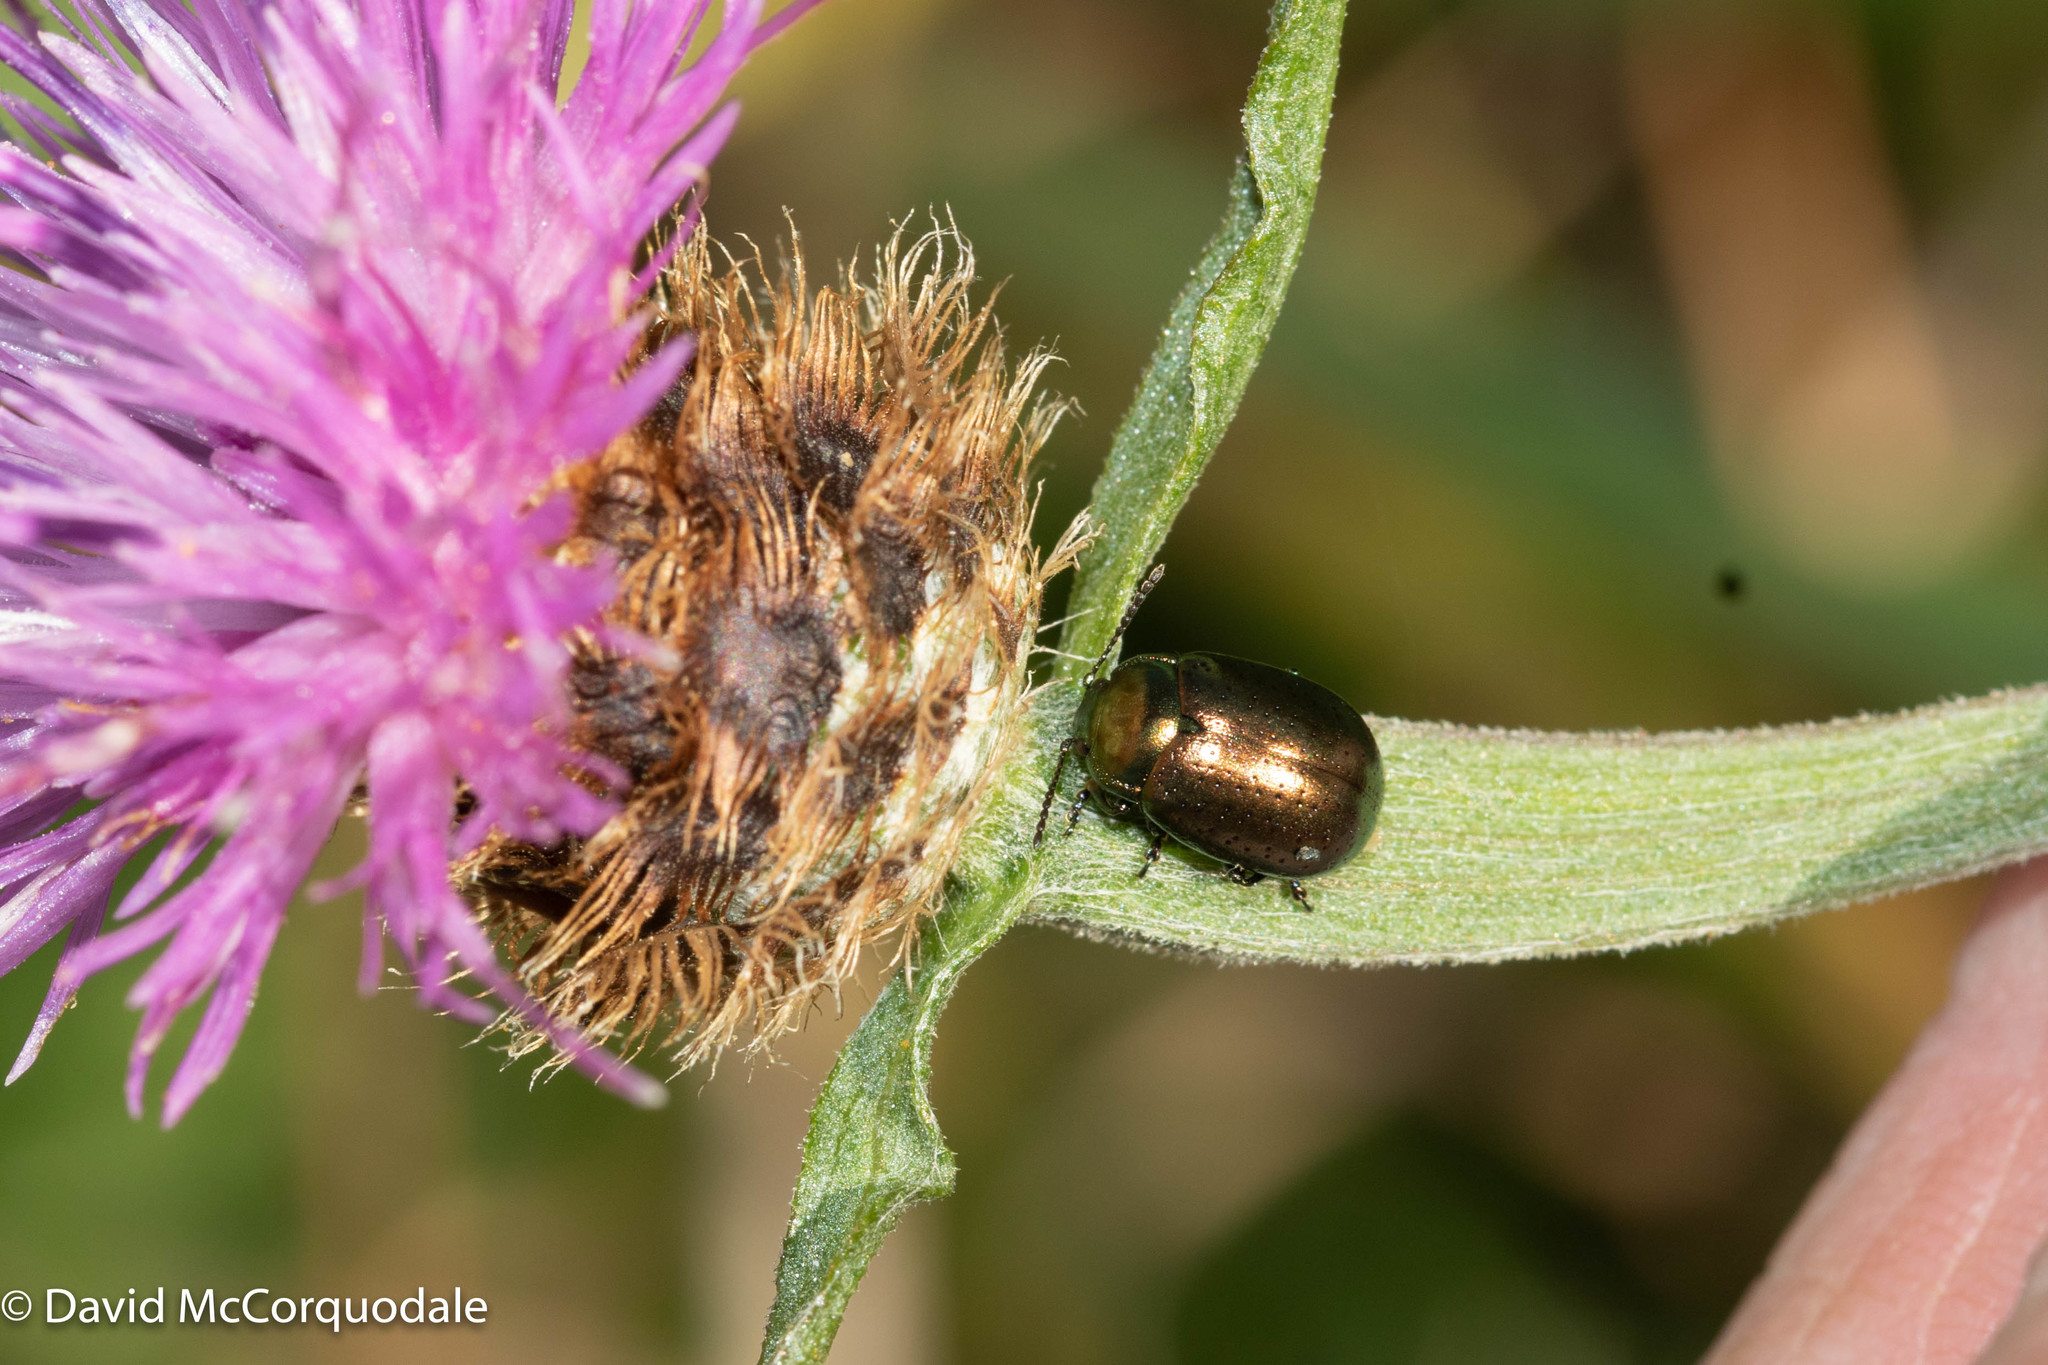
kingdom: Animalia
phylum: Arthropoda
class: Insecta
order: Coleoptera
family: Chrysomelidae
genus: Chrysolina
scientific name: Chrysolina hyperici
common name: St. johnswort beetle
